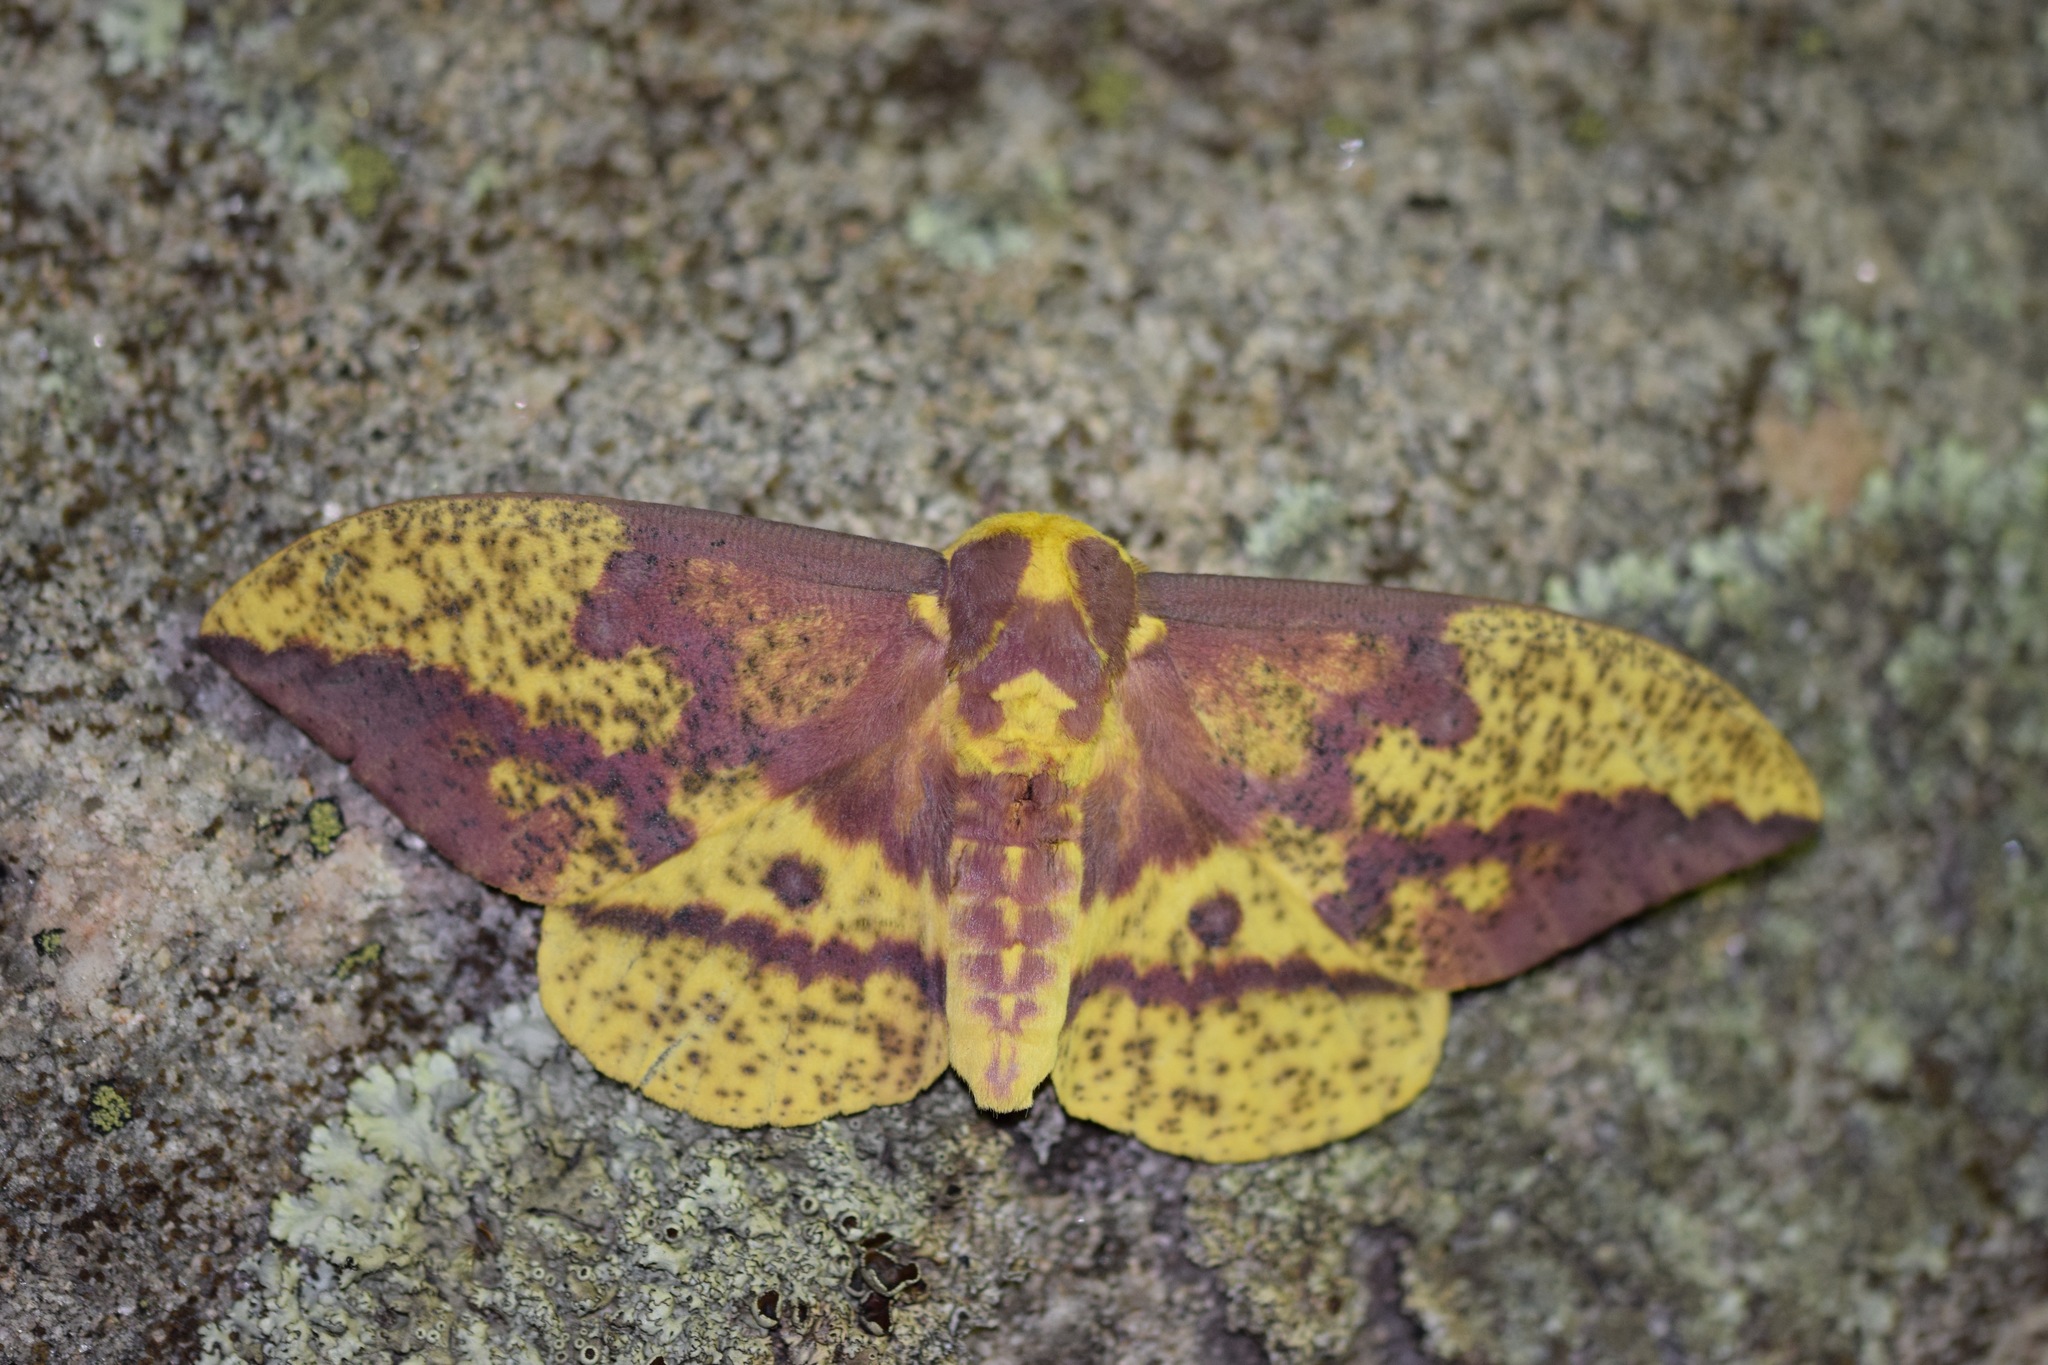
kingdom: Animalia
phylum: Arthropoda
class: Insecta
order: Lepidoptera
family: Saturniidae
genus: Eacles
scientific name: Eacles
